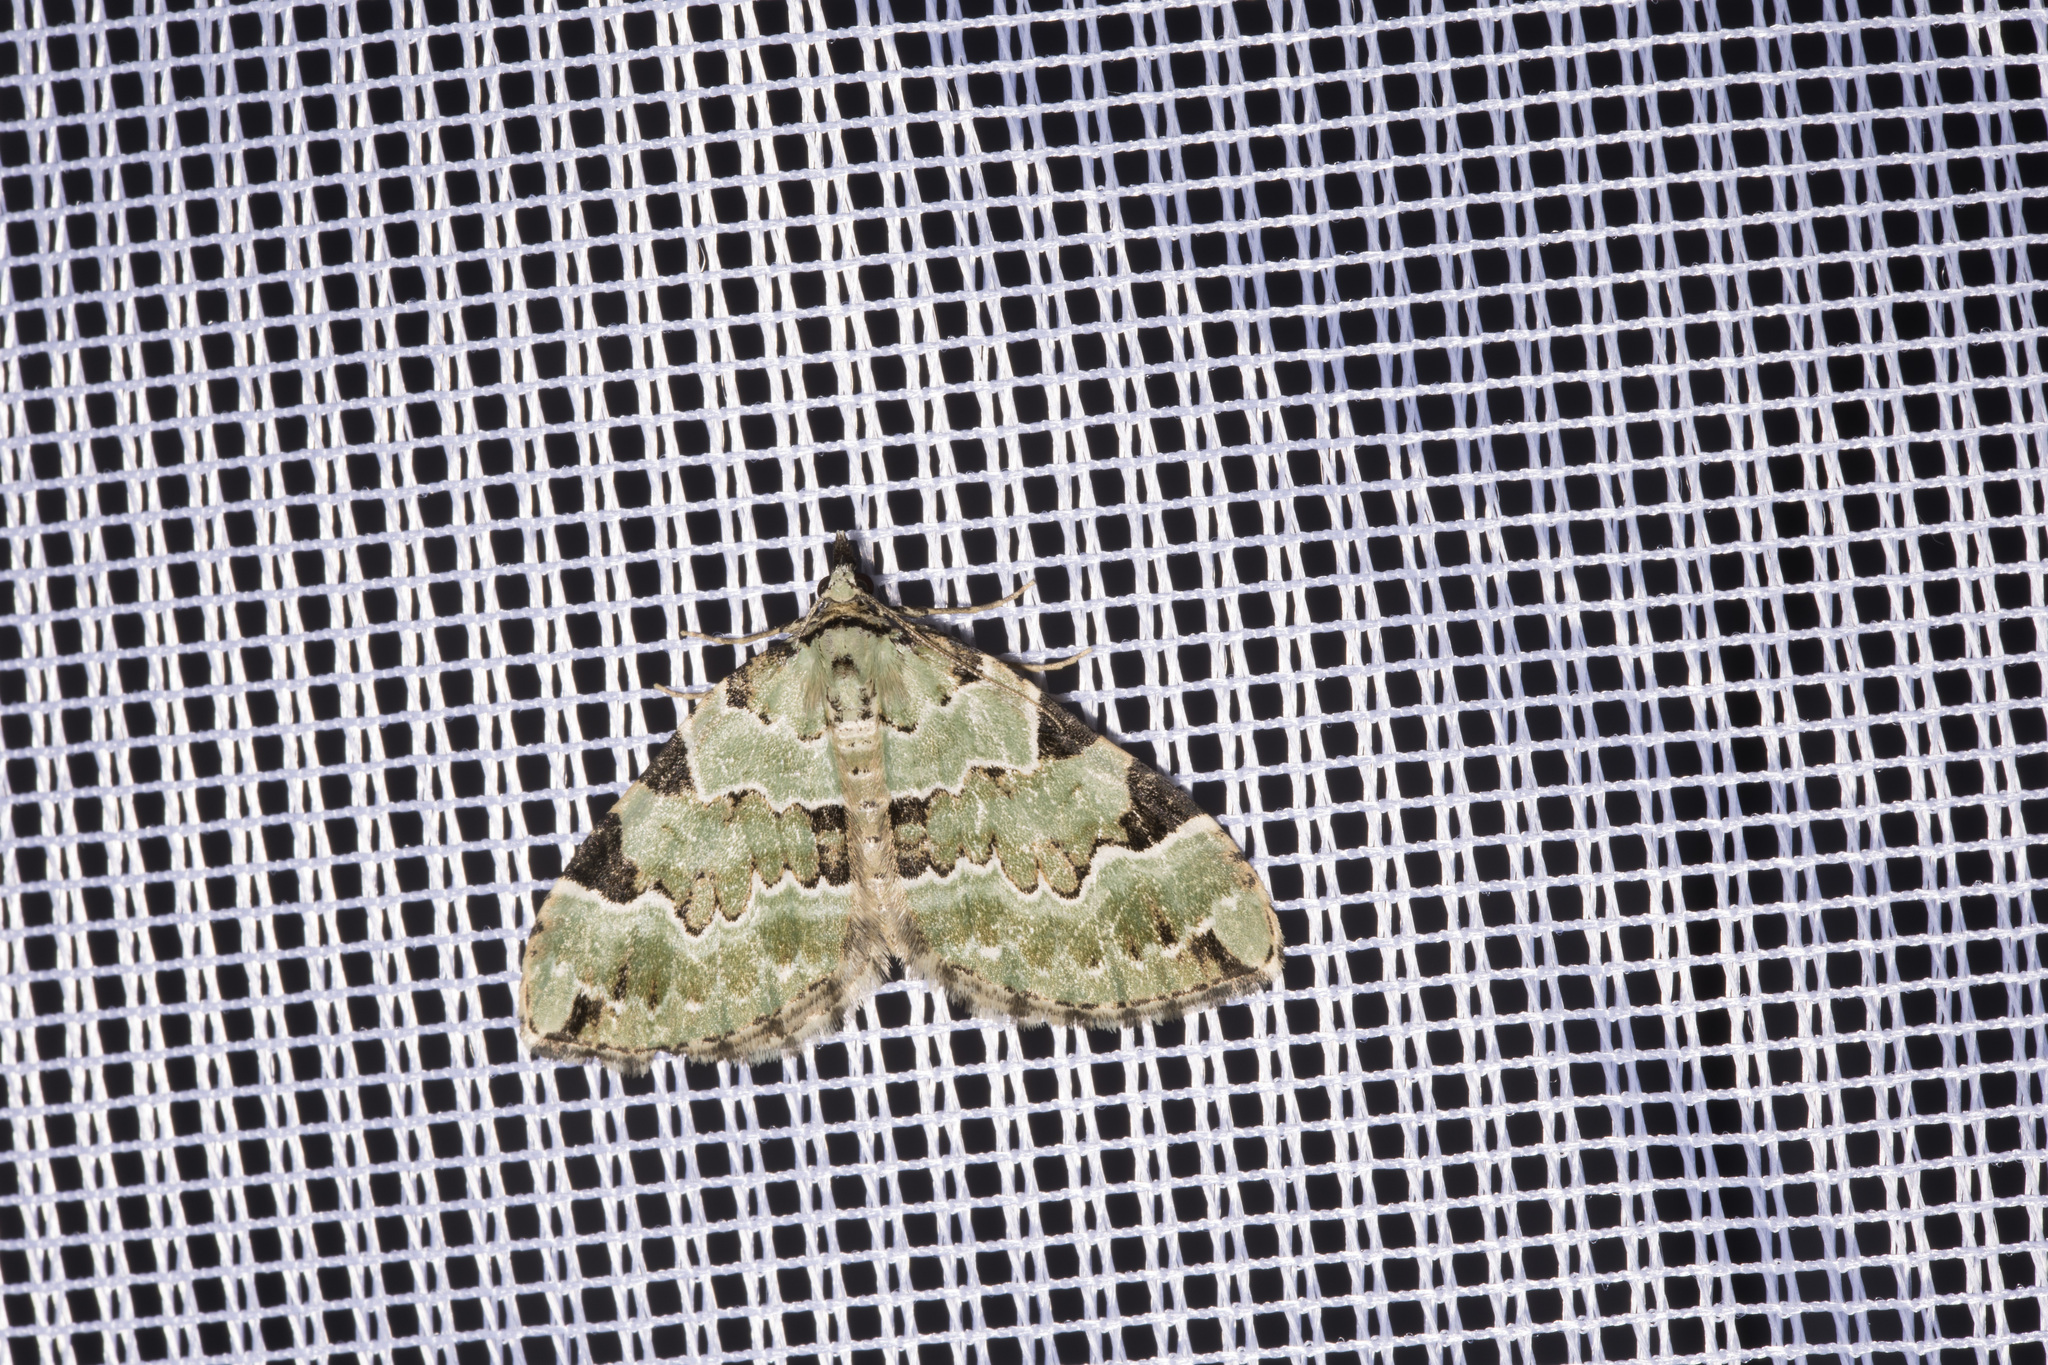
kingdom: Animalia
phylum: Arthropoda
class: Insecta
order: Lepidoptera
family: Geometridae
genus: Colostygia
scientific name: Colostygia pectinataria
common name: Green carpet
